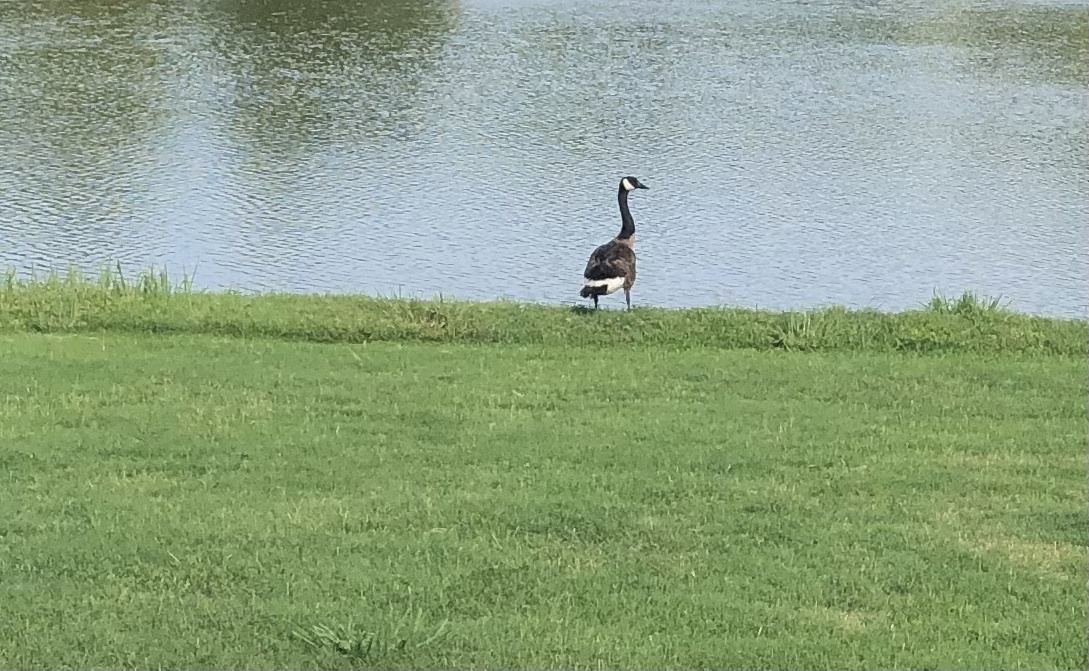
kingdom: Animalia
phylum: Chordata
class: Aves
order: Anseriformes
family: Anatidae
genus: Branta
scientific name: Branta canadensis
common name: Canada goose
